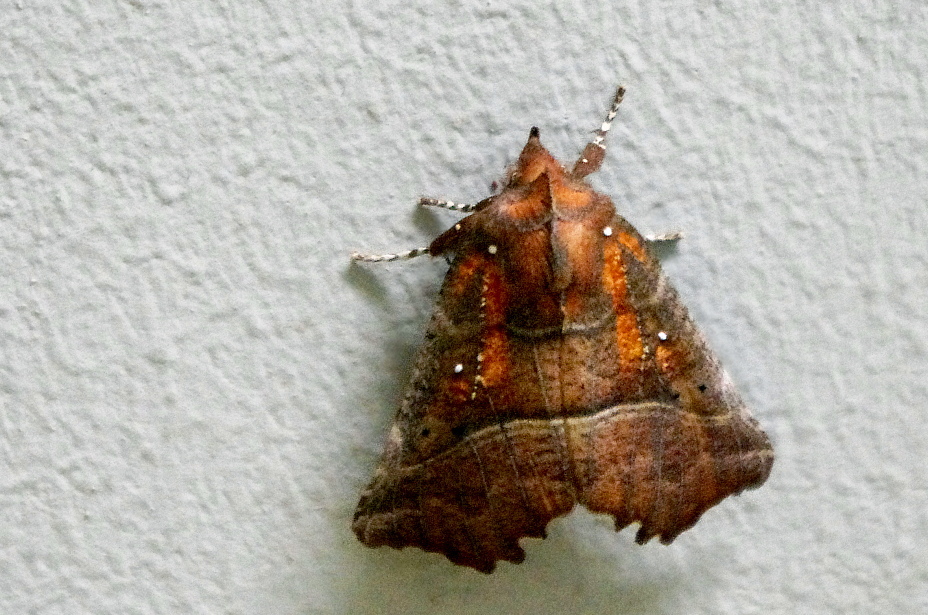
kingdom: Animalia
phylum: Arthropoda
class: Insecta
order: Lepidoptera
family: Erebidae
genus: Scoliopteryx
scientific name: Scoliopteryx libatrix
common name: Herald
